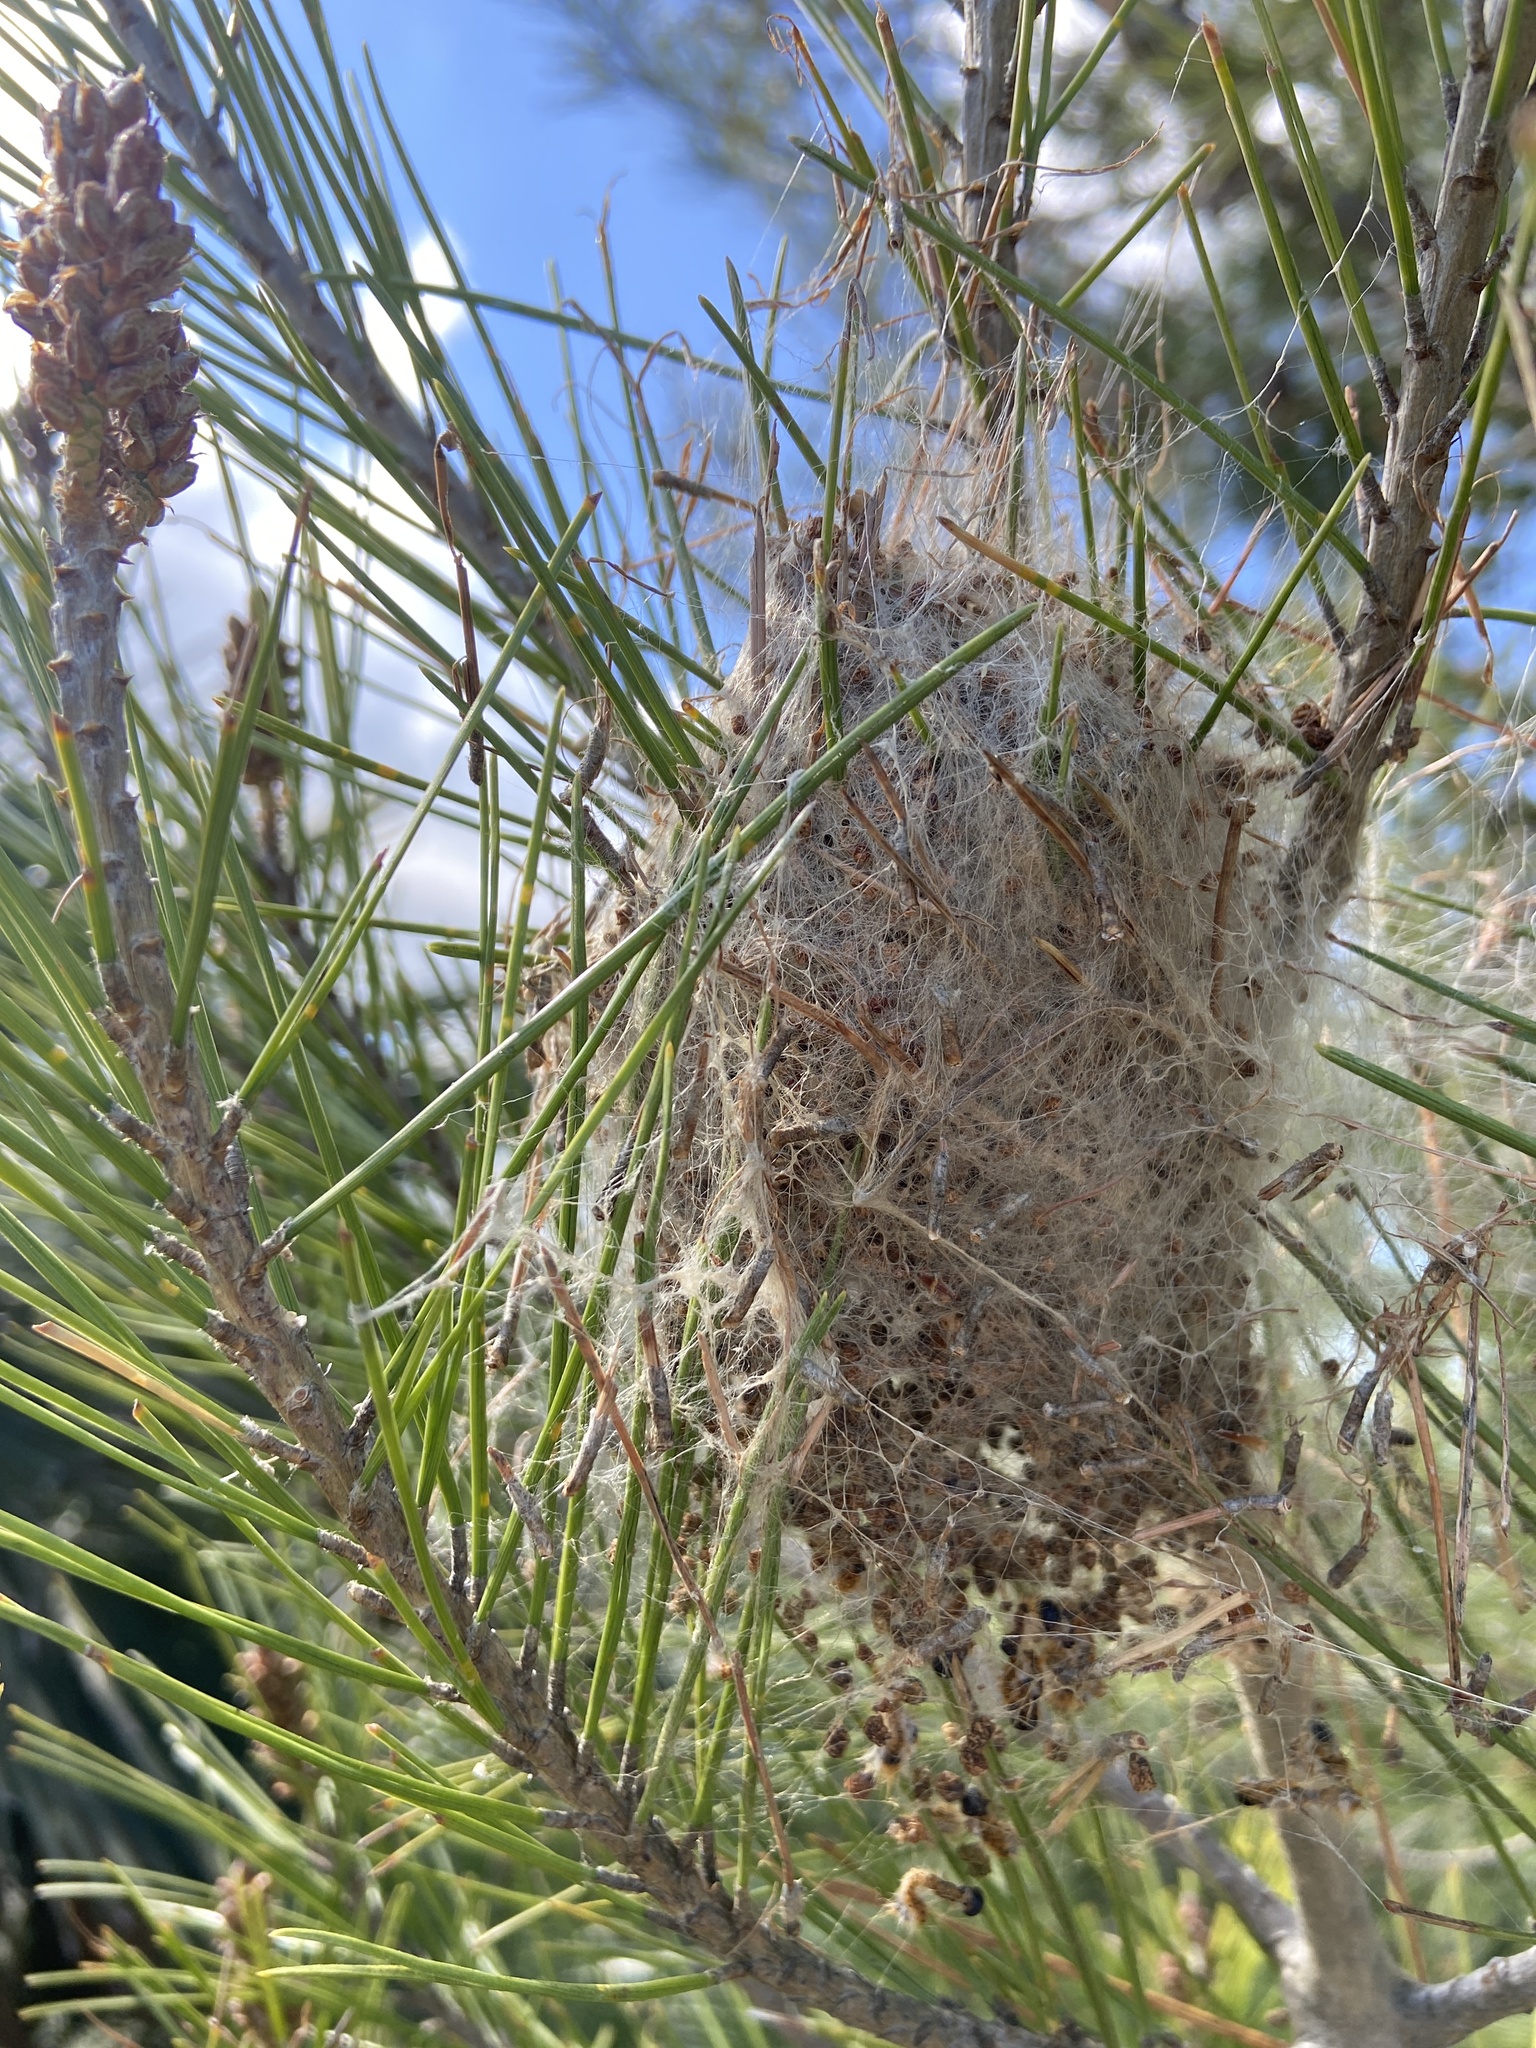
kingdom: Animalia
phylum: Arthropoda
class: Insecta
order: Lepidoptera
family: Notodontidae
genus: Thaumetopoea
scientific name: Thaumetopoea pityocampa
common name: Pine processionary
